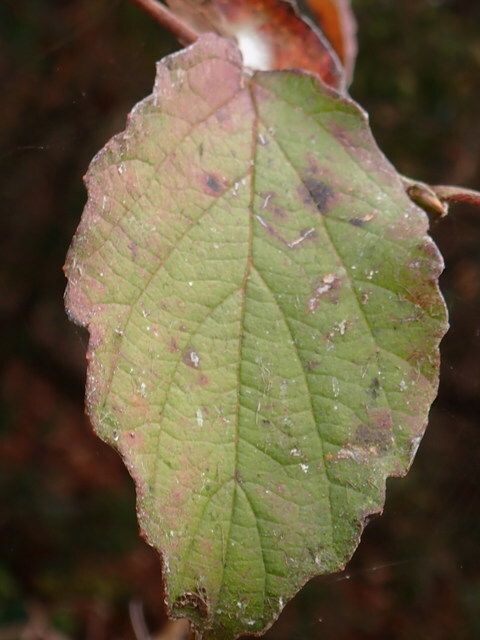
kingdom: Plantae
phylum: Tracheophyta
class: Magnoliopsida
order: Dipsacales
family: Viburnaceae
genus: Viburnum
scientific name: Viburnum scabrellum
